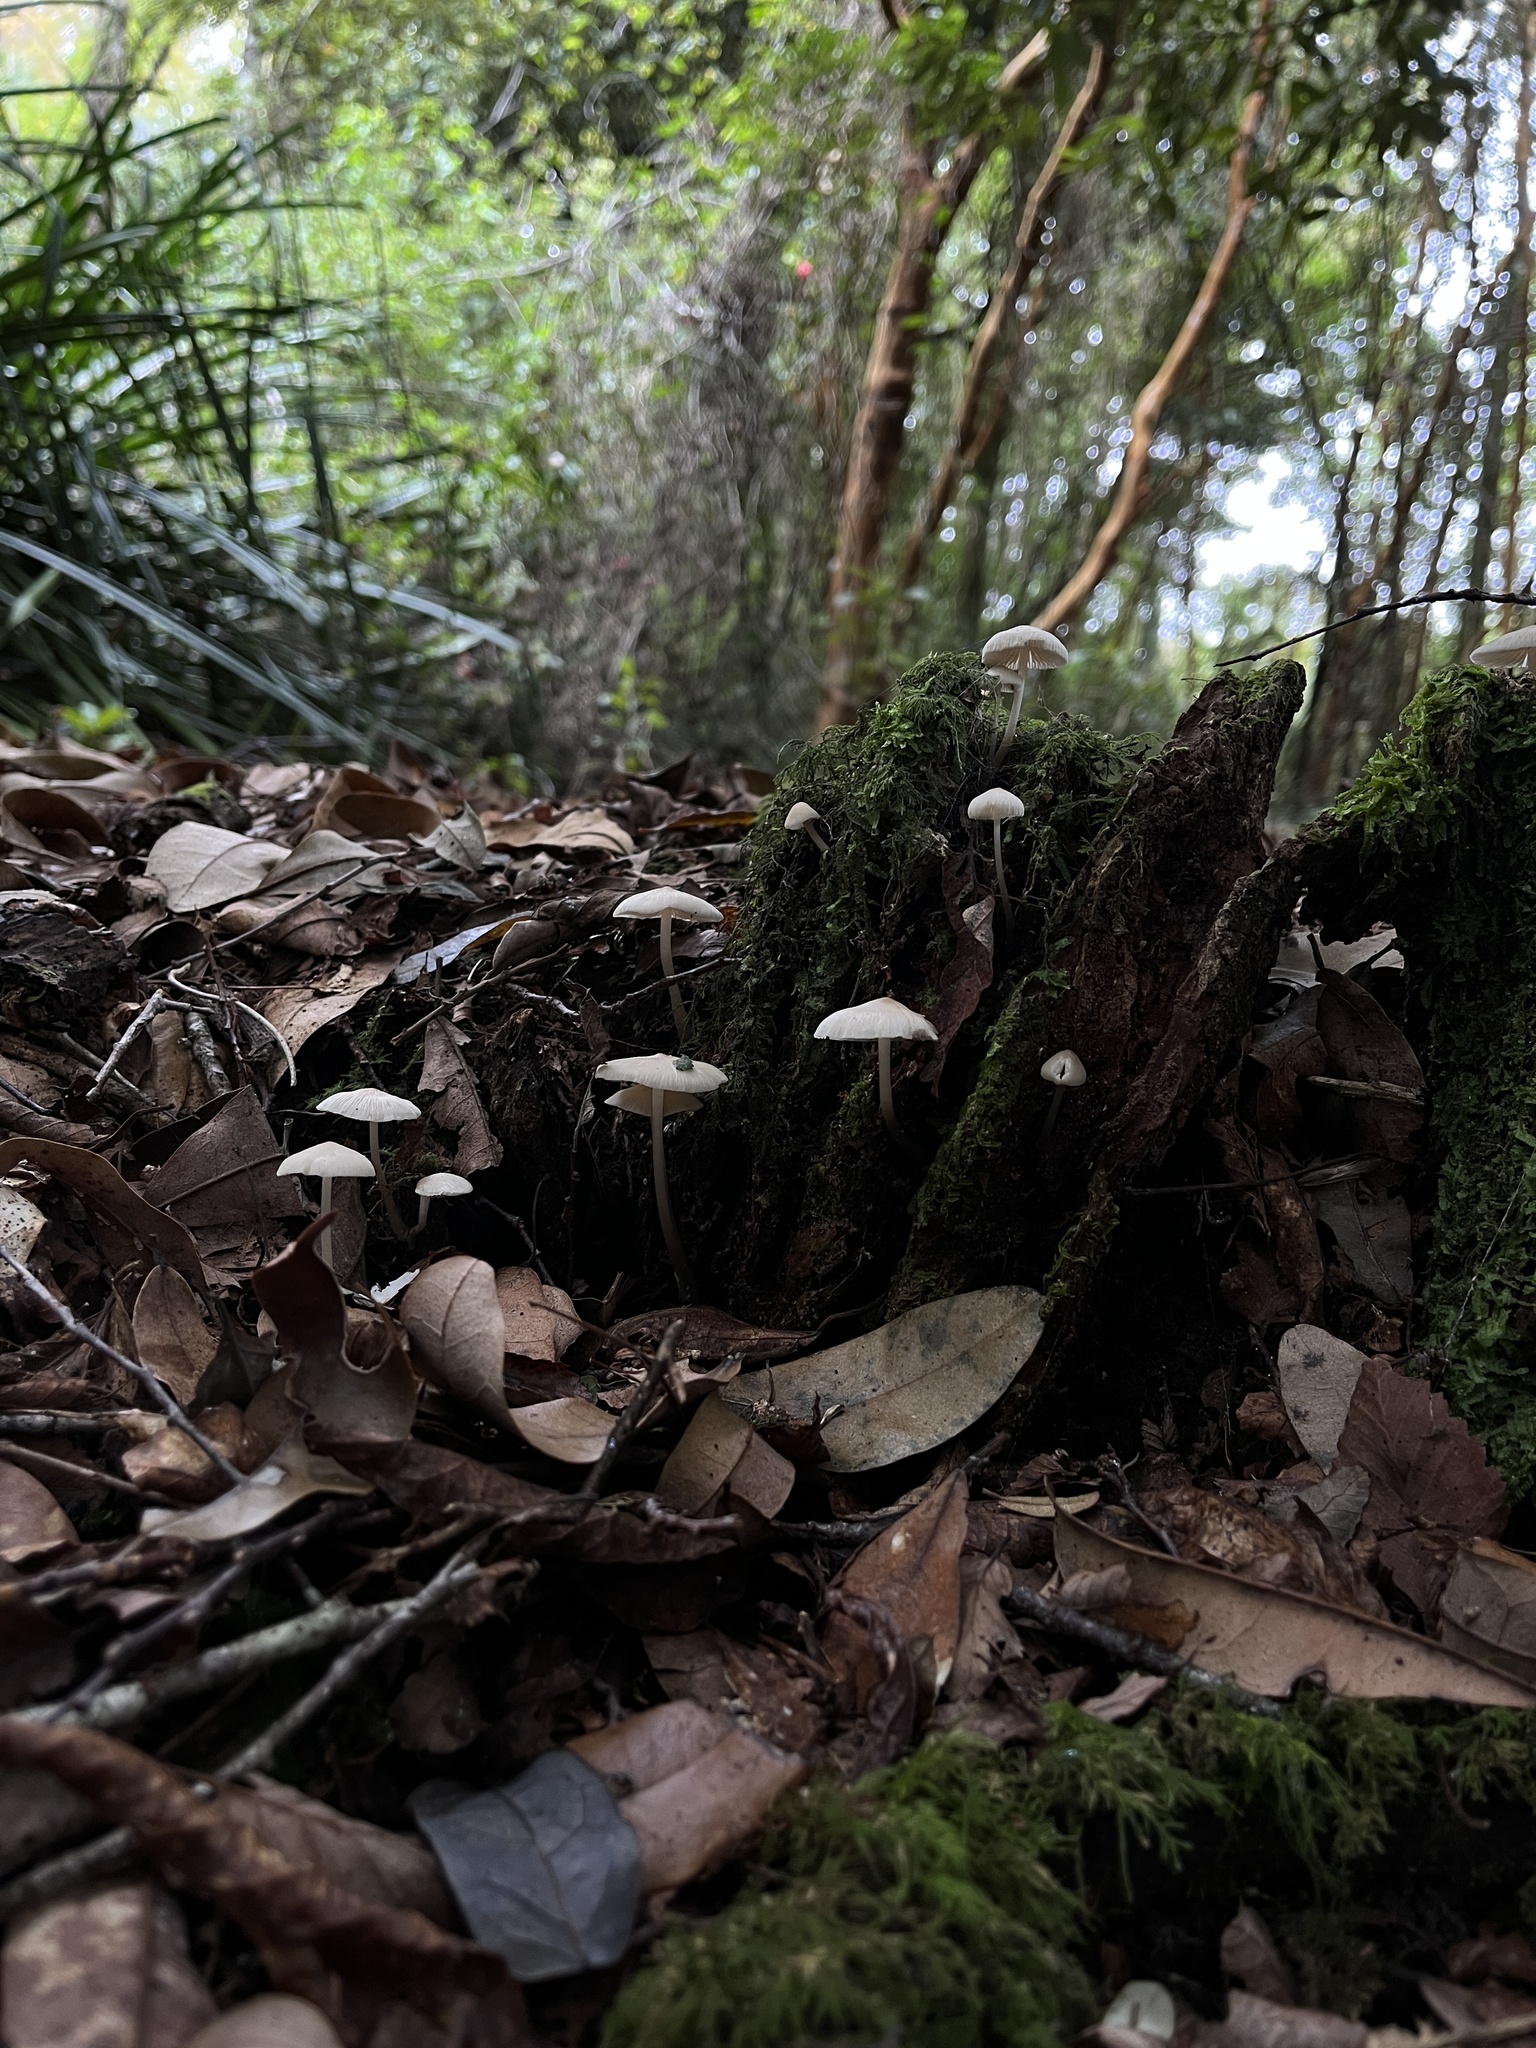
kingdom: Fungi
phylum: Basidiomycota
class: Agaricomycetes
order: Agaricales
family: Mycenaceae
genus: Mycena
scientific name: Mycena galericulata
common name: Bonnet mycena
